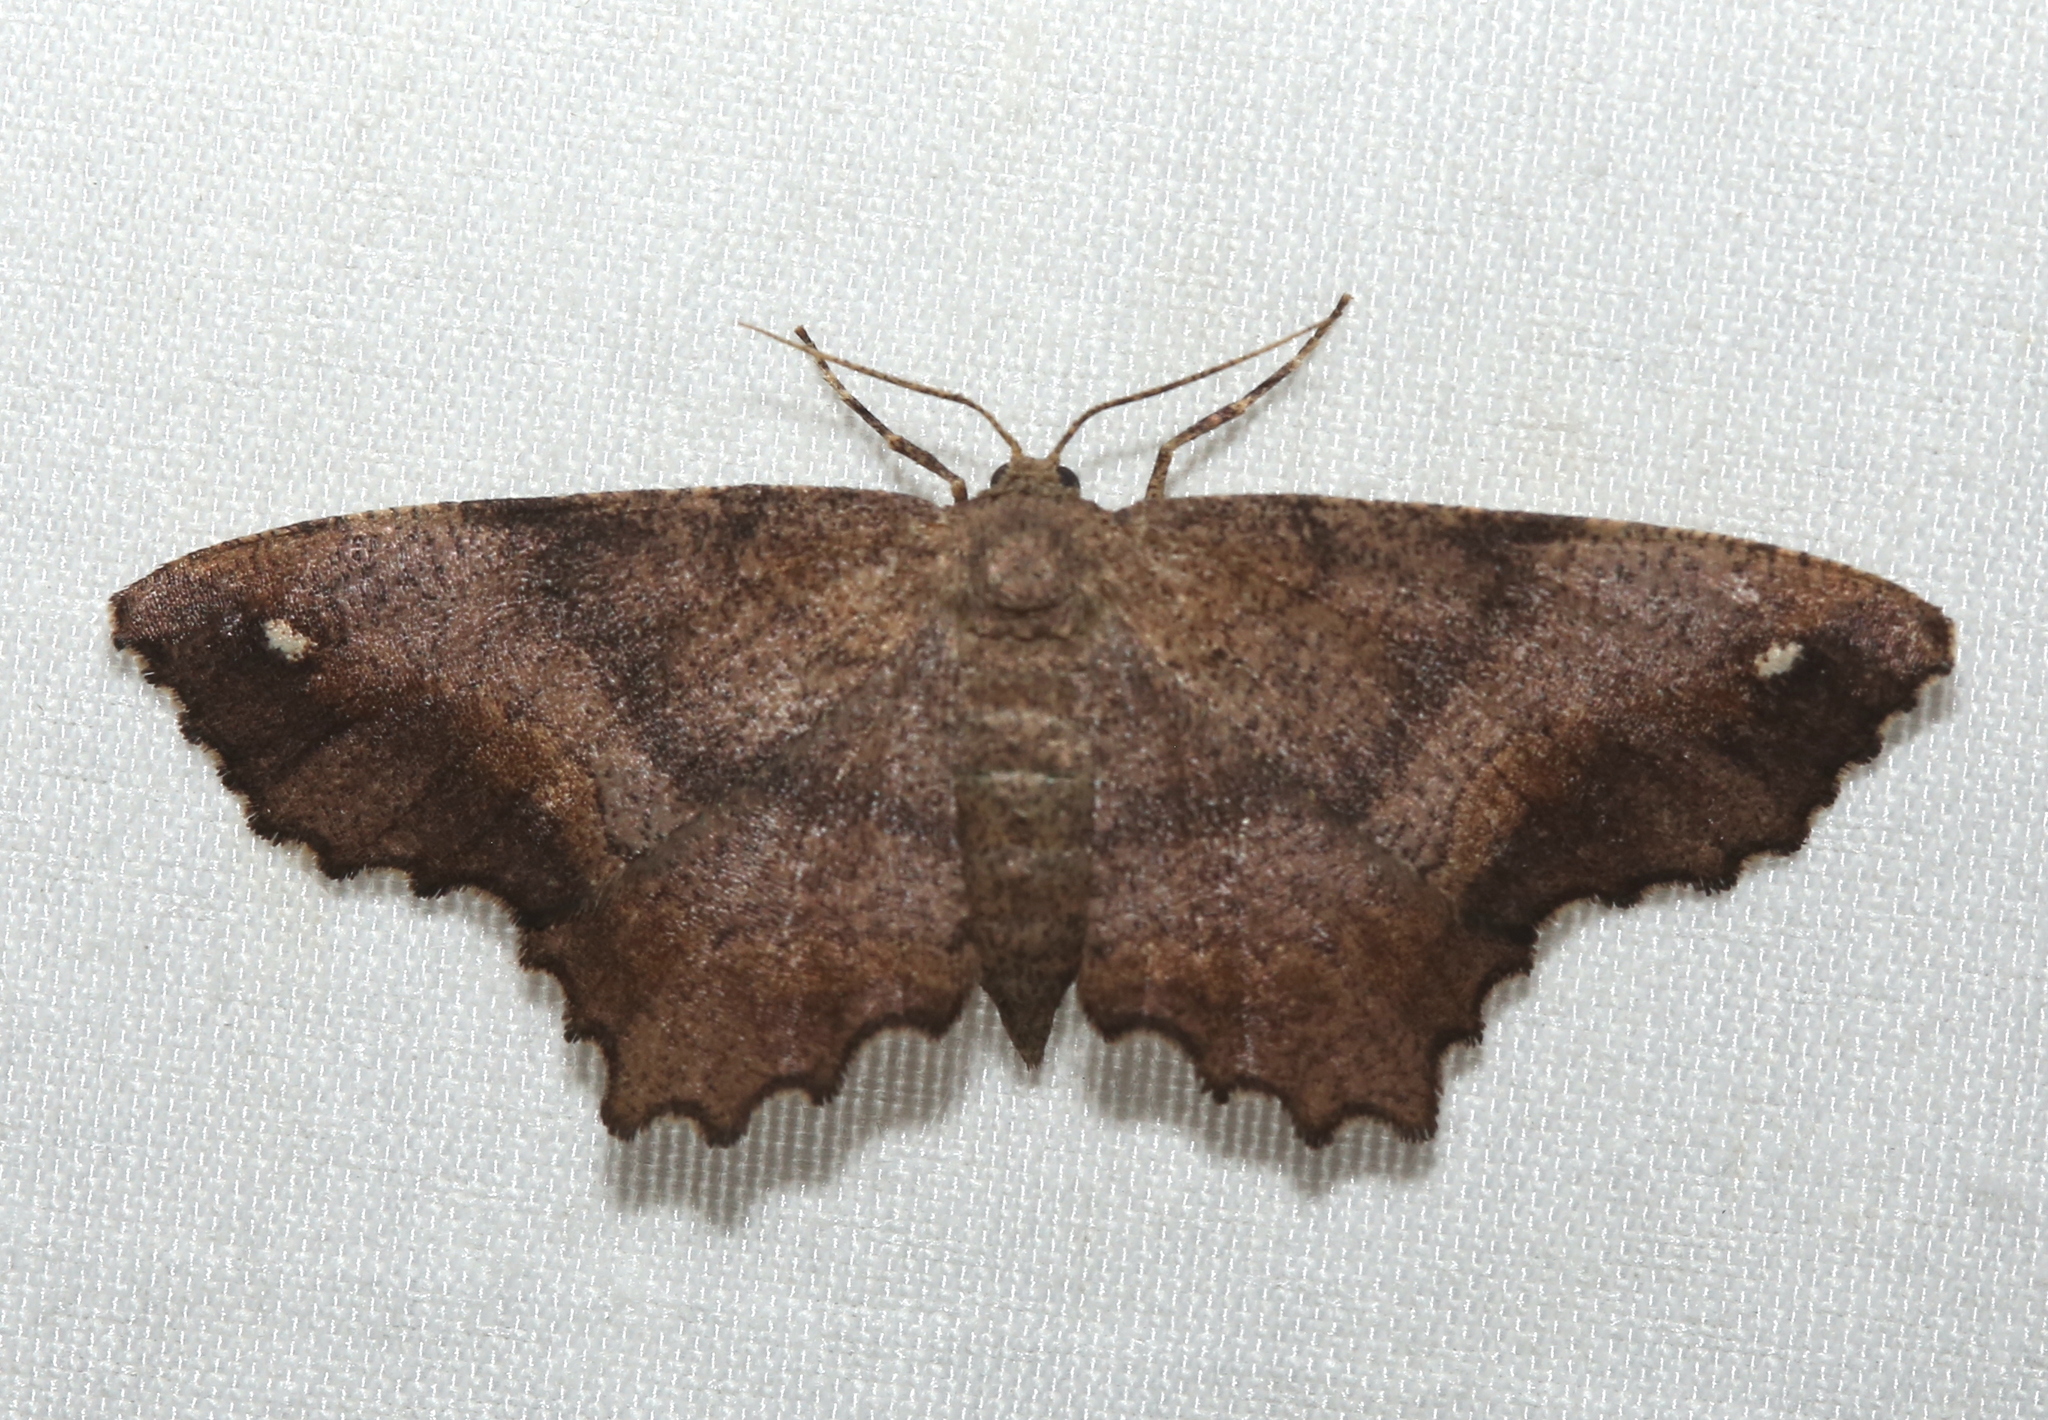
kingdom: Animalia
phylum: Arthropoda
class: Insecta
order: Lepidoptera
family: Geometridae
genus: Hypagyrtis
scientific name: Hypagyrtis esther
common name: Esther moth
